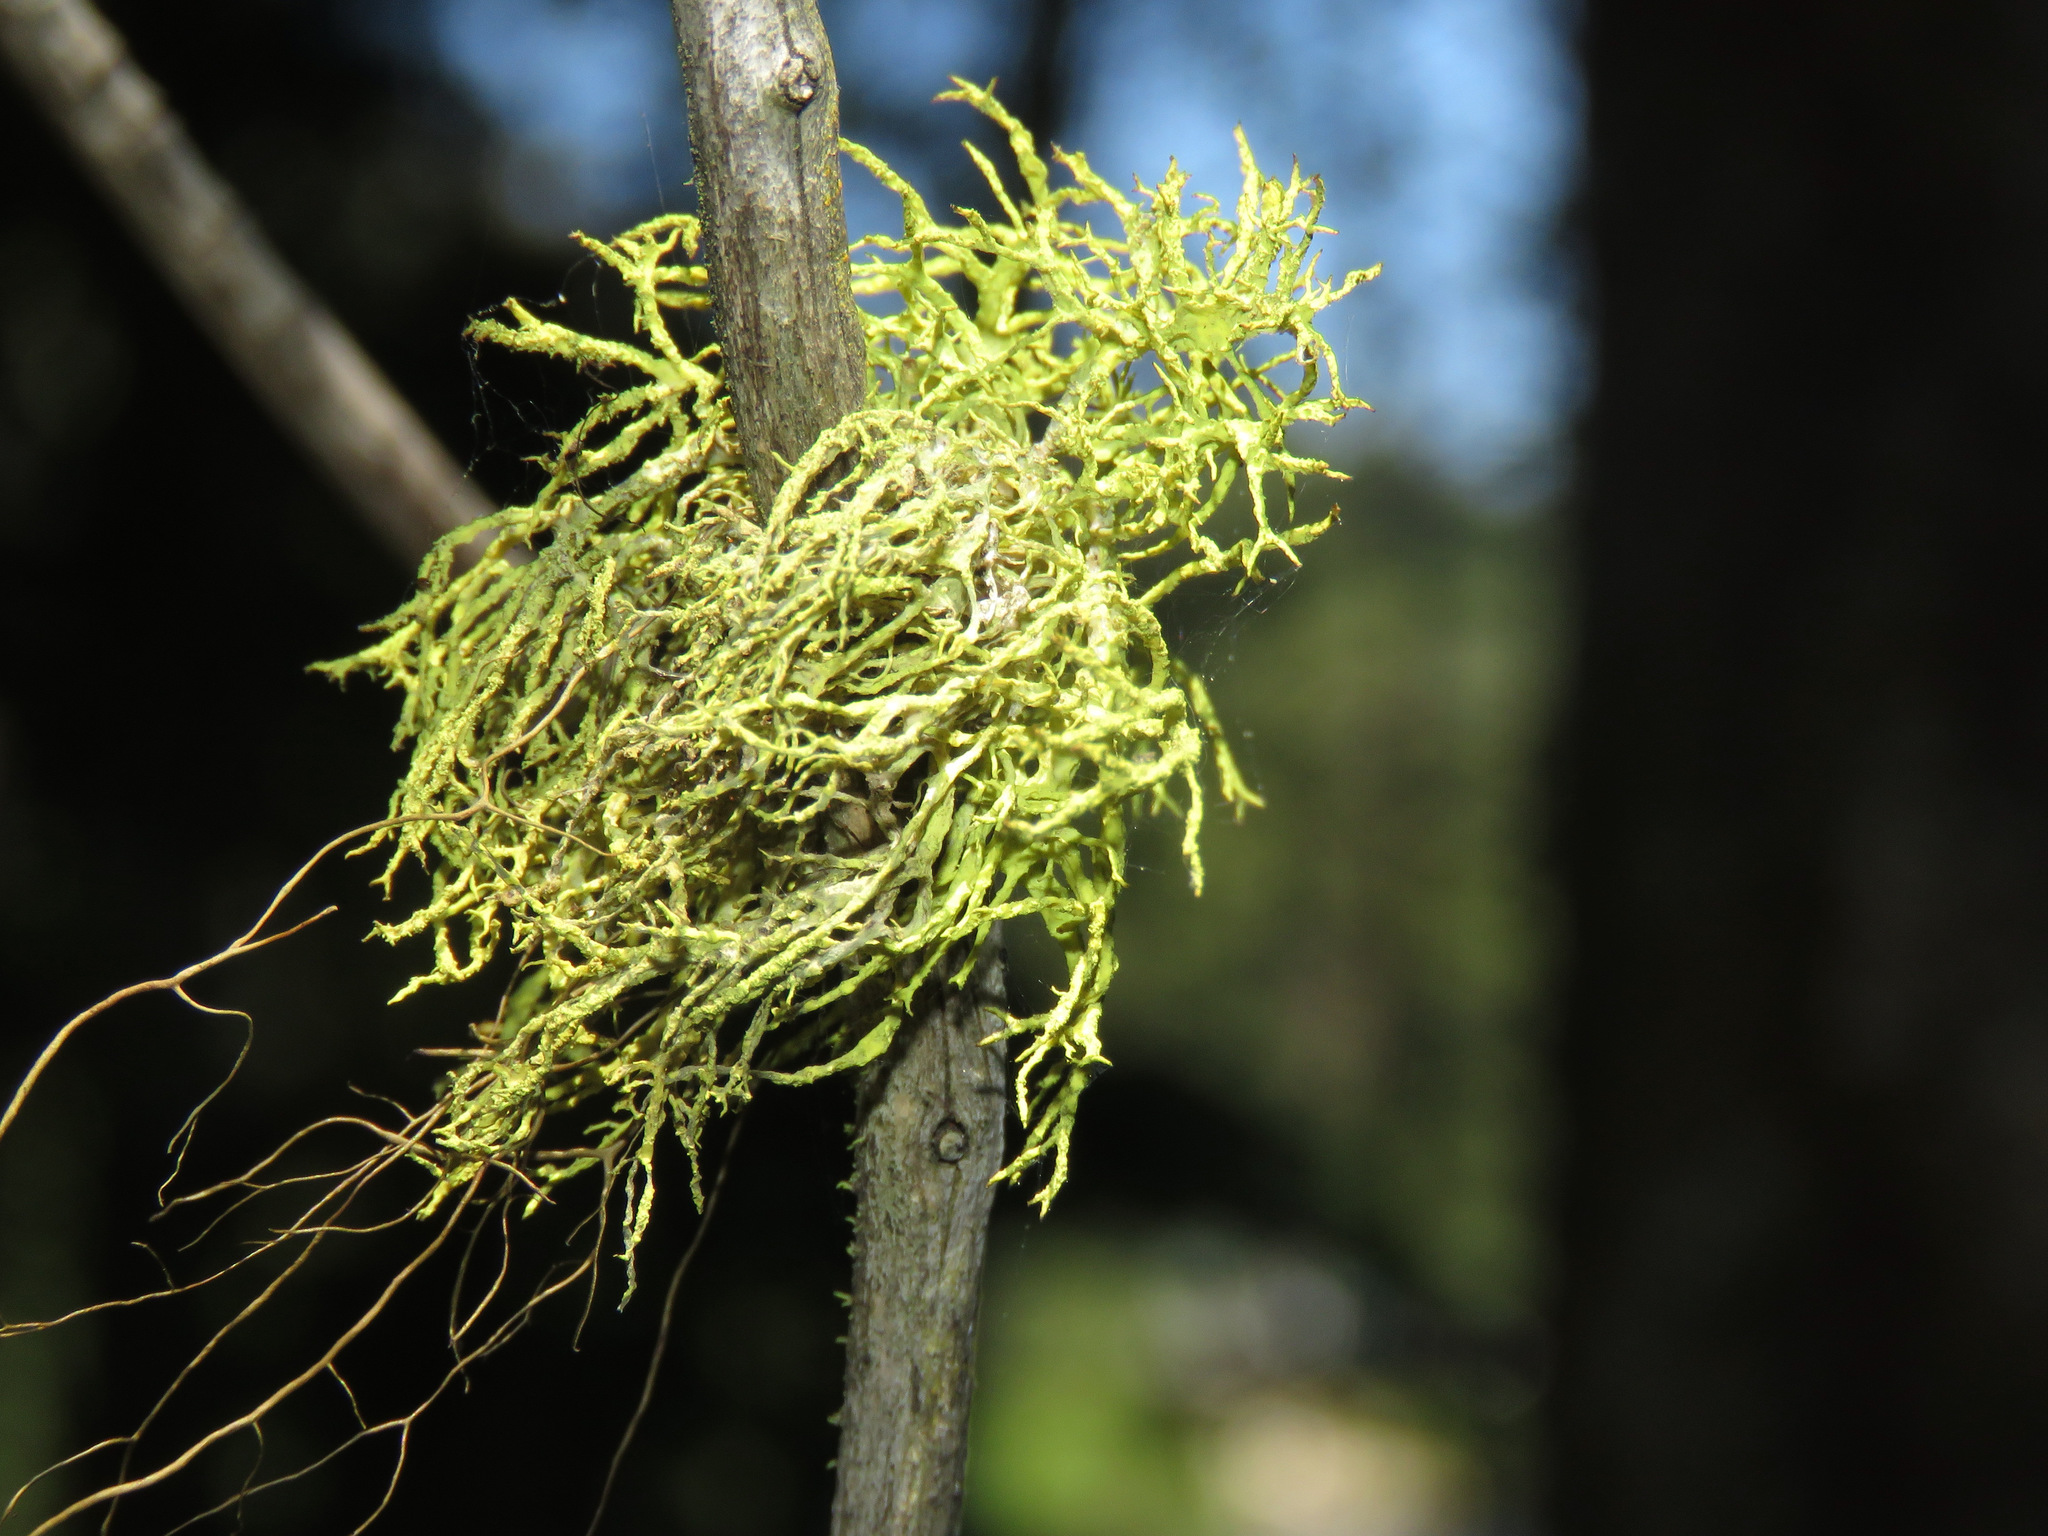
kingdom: Fungi
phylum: Ascomycota
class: Lecanoromycetes
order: Lecanorales
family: Parmeliaceae
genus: Letharia
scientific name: Letharia vulpina
